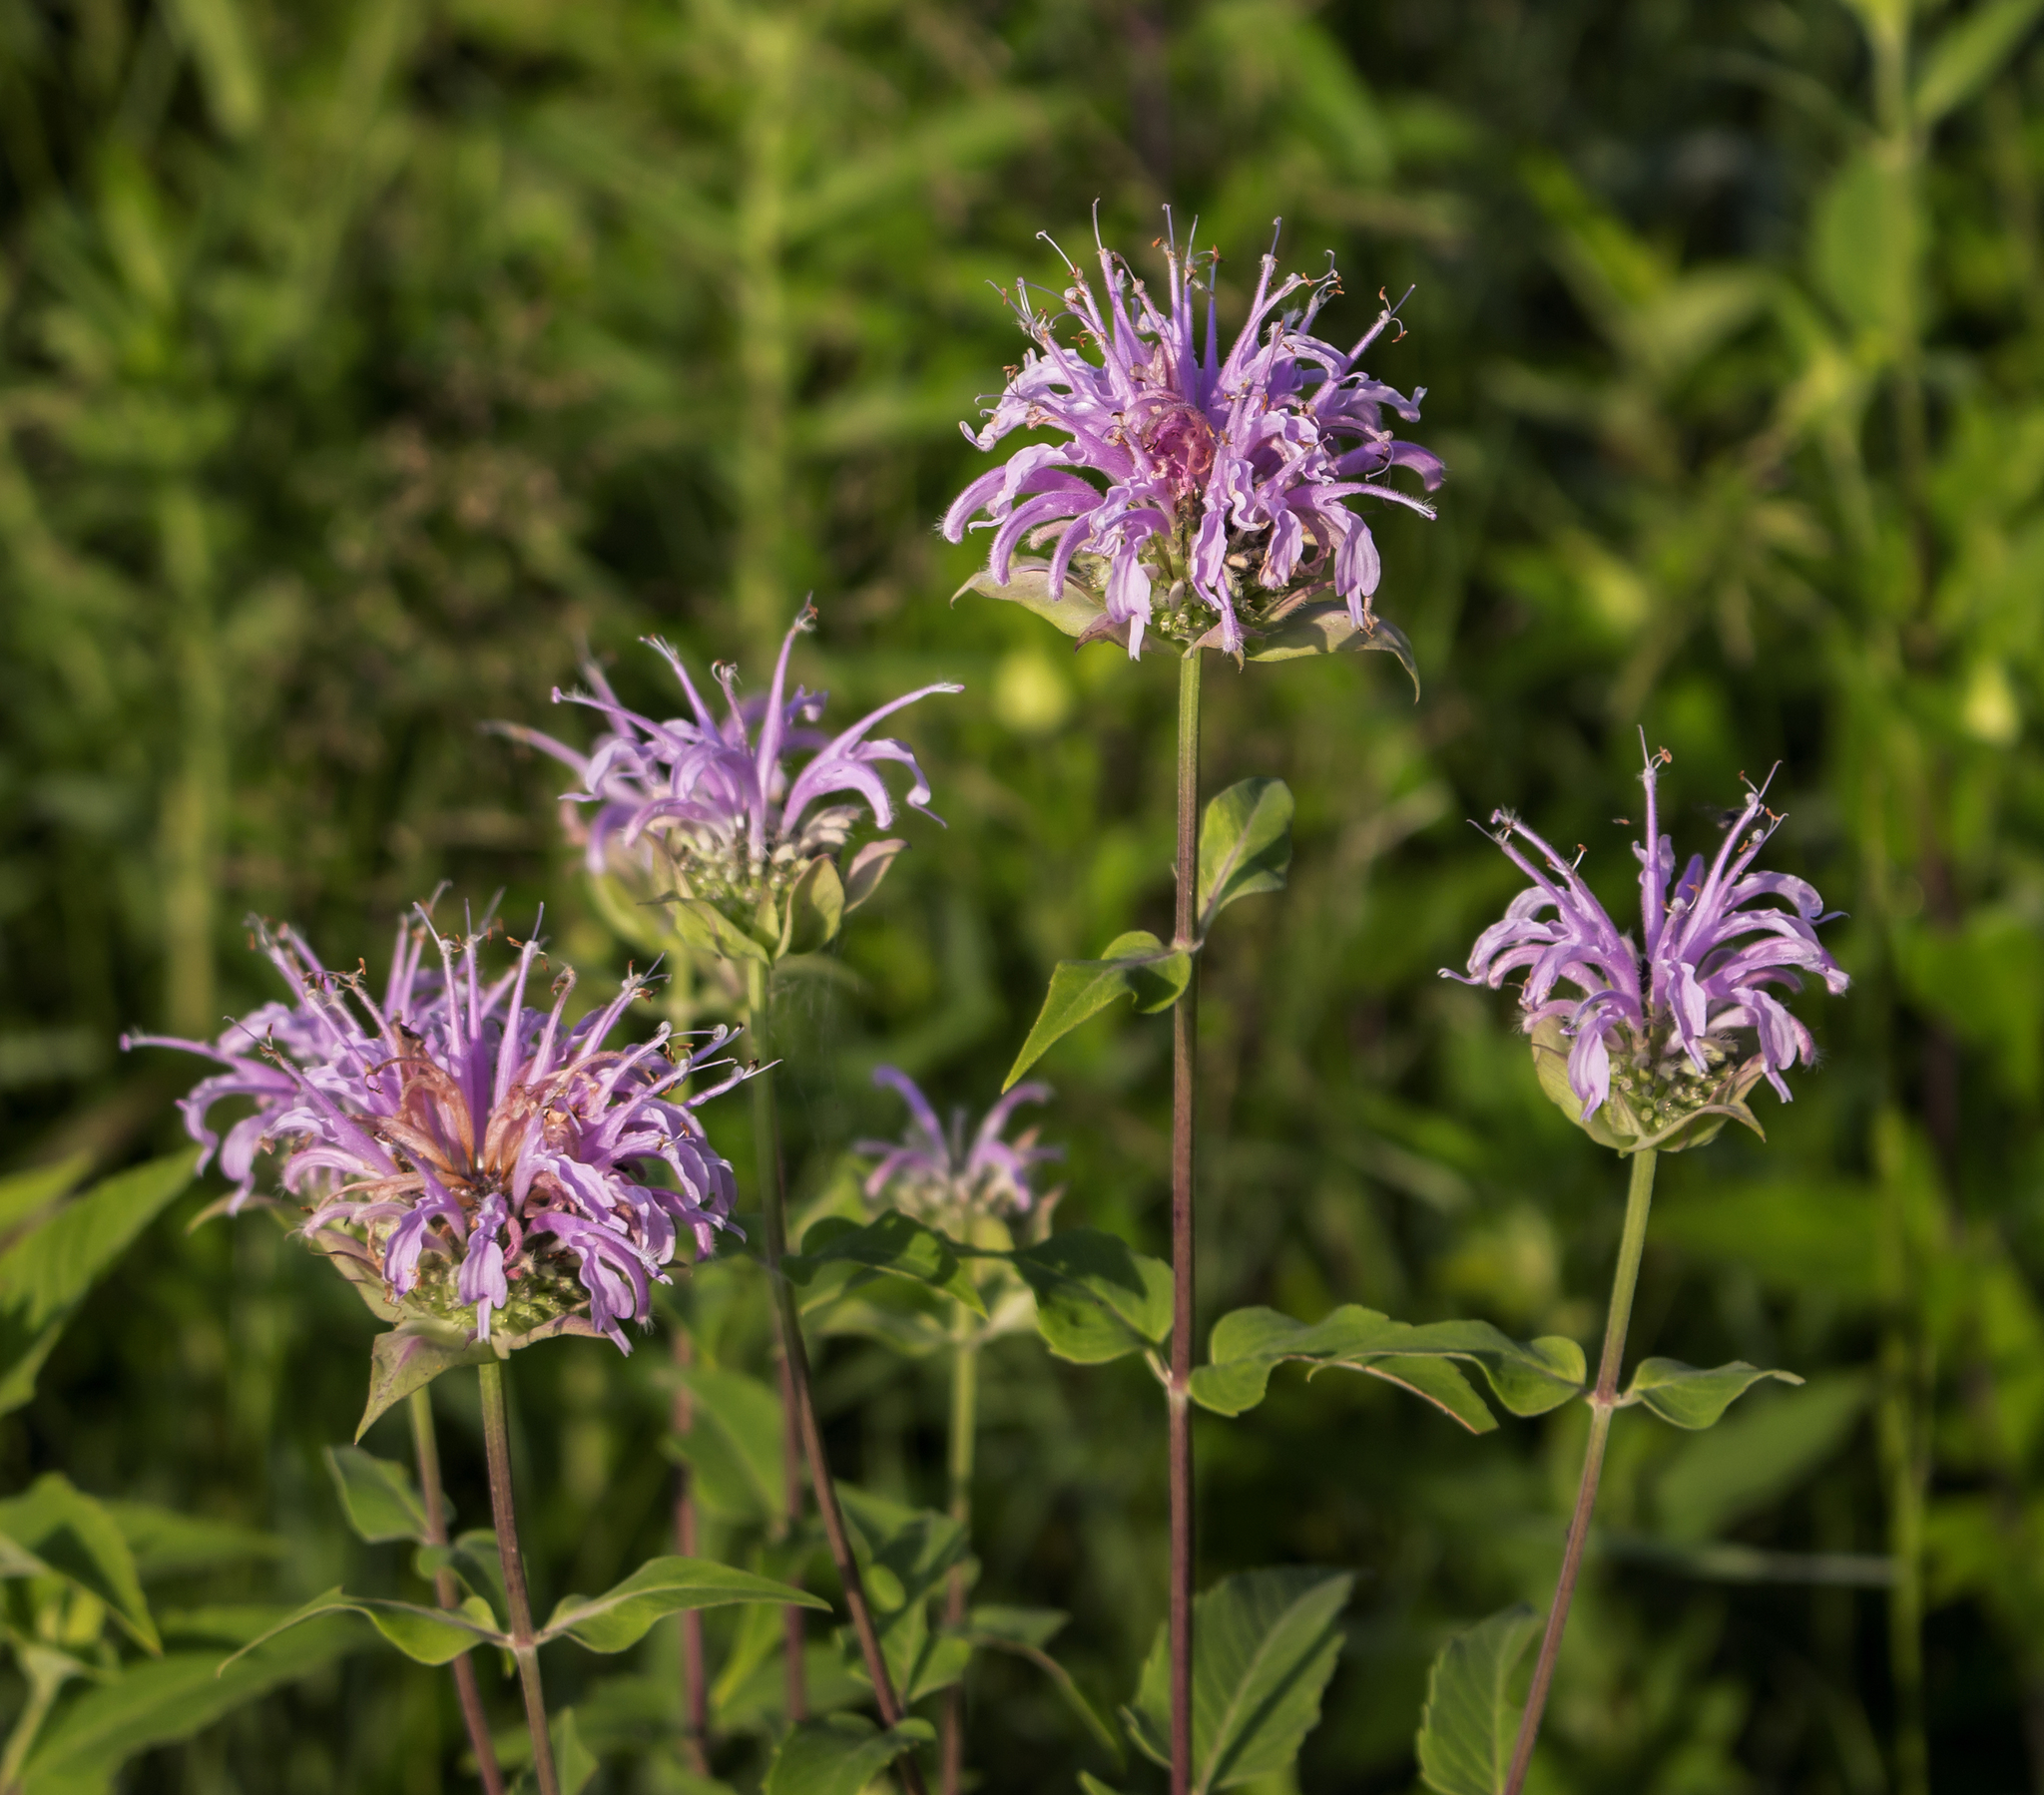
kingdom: Plantae
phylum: Tracheophyta
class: Magnoliopsida
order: Lamiales
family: Lamiaceae
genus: Monarda
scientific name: Monarda fistulosa
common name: Purple beebalm
